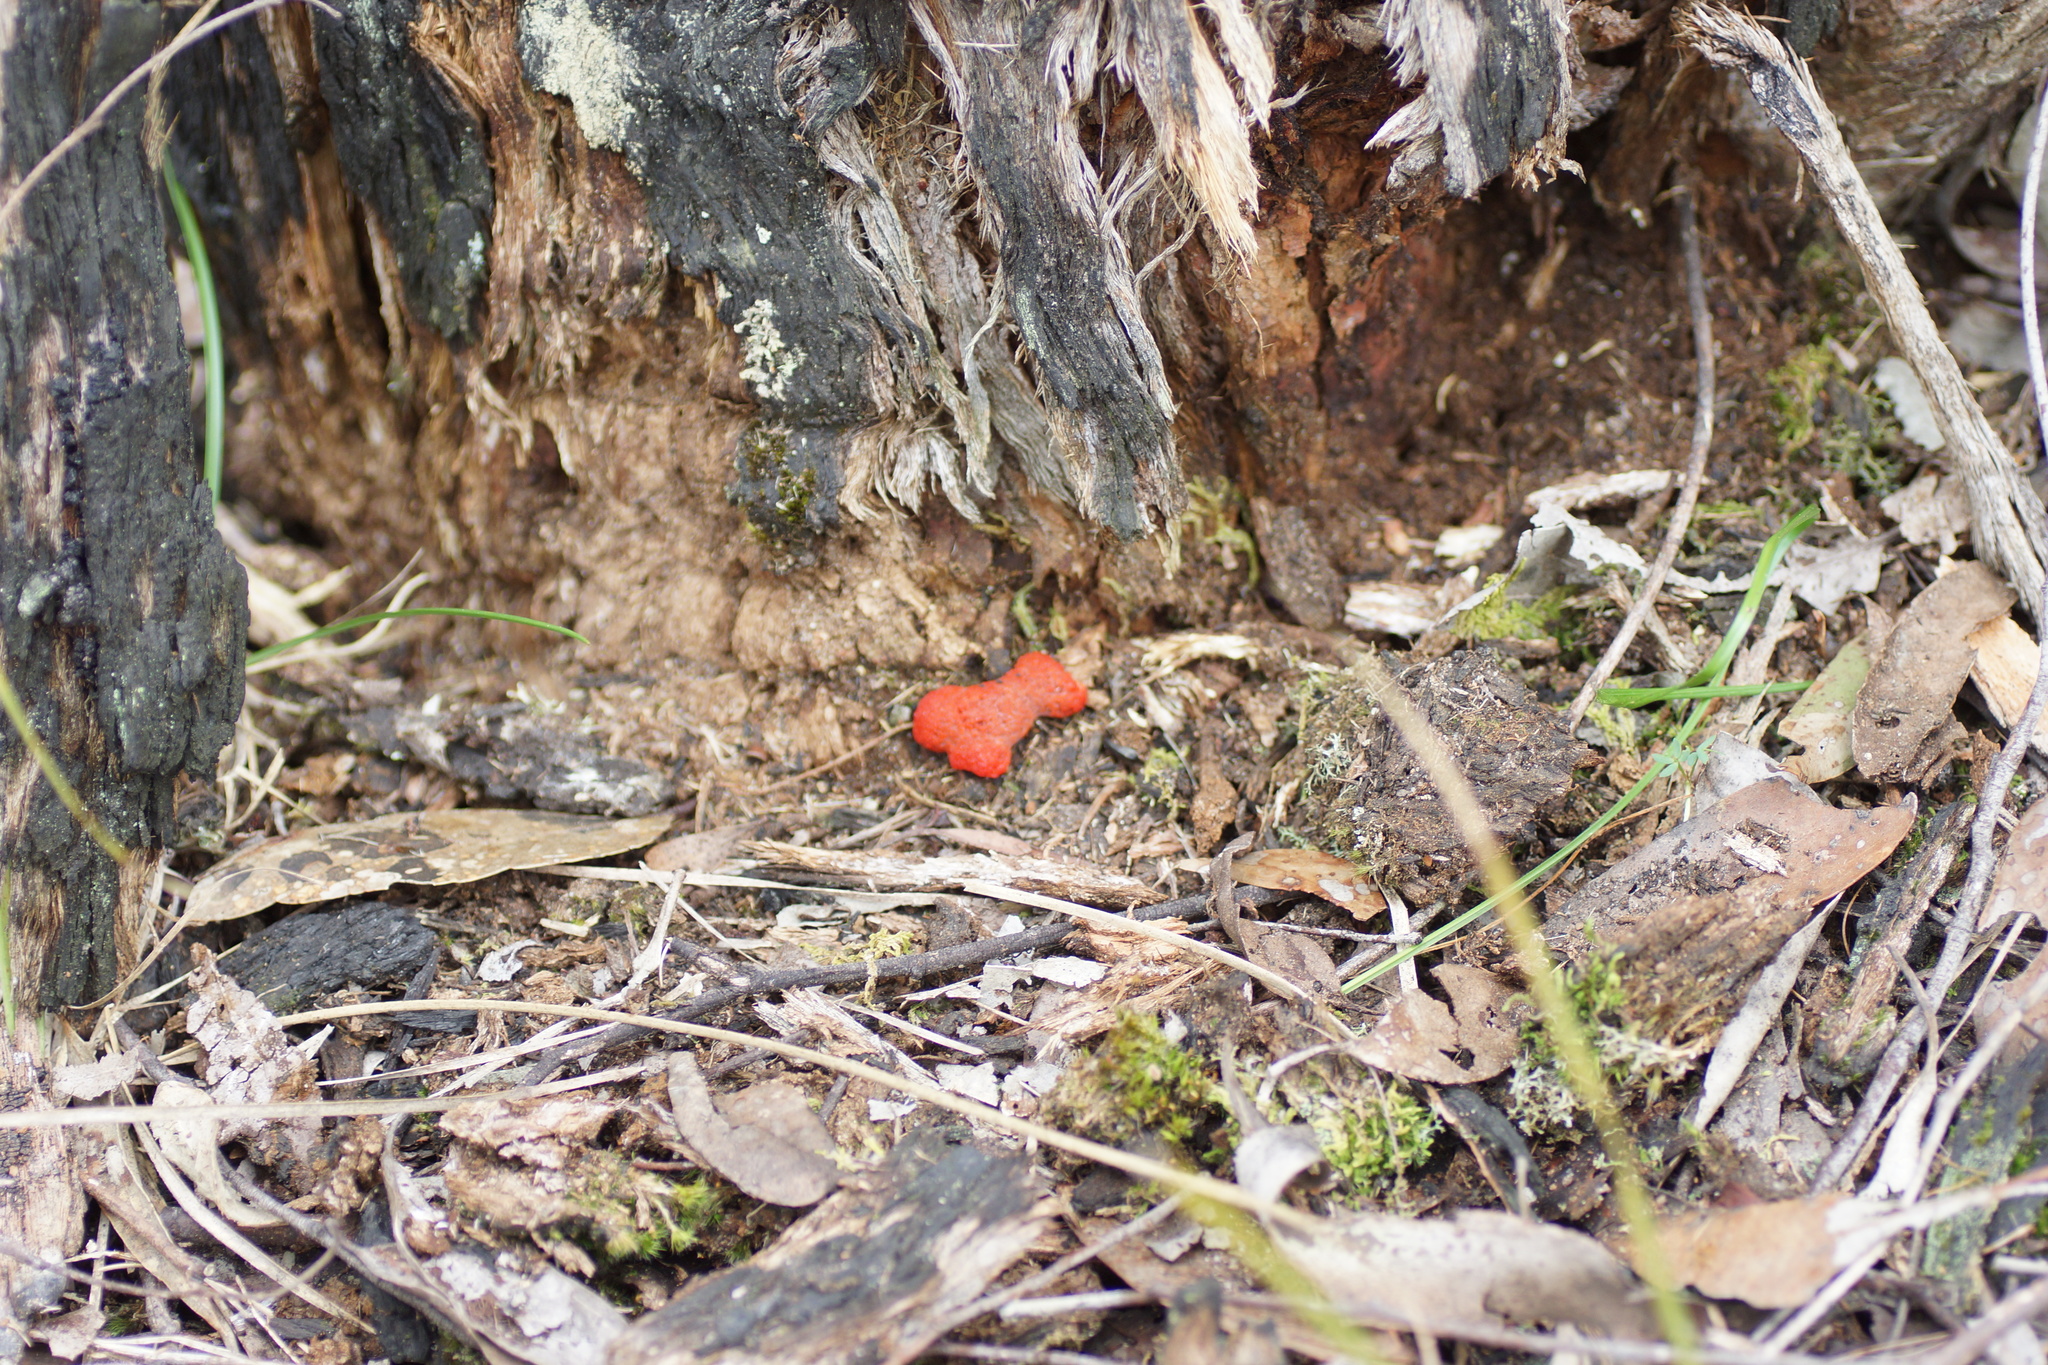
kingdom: Protozoa
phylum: Mycetozoa
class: Myxomycetes
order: Cribrariales
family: Tubiferaceae
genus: Tubifera
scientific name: Tubifera ferruginosa
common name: Red raspberry slime mold
